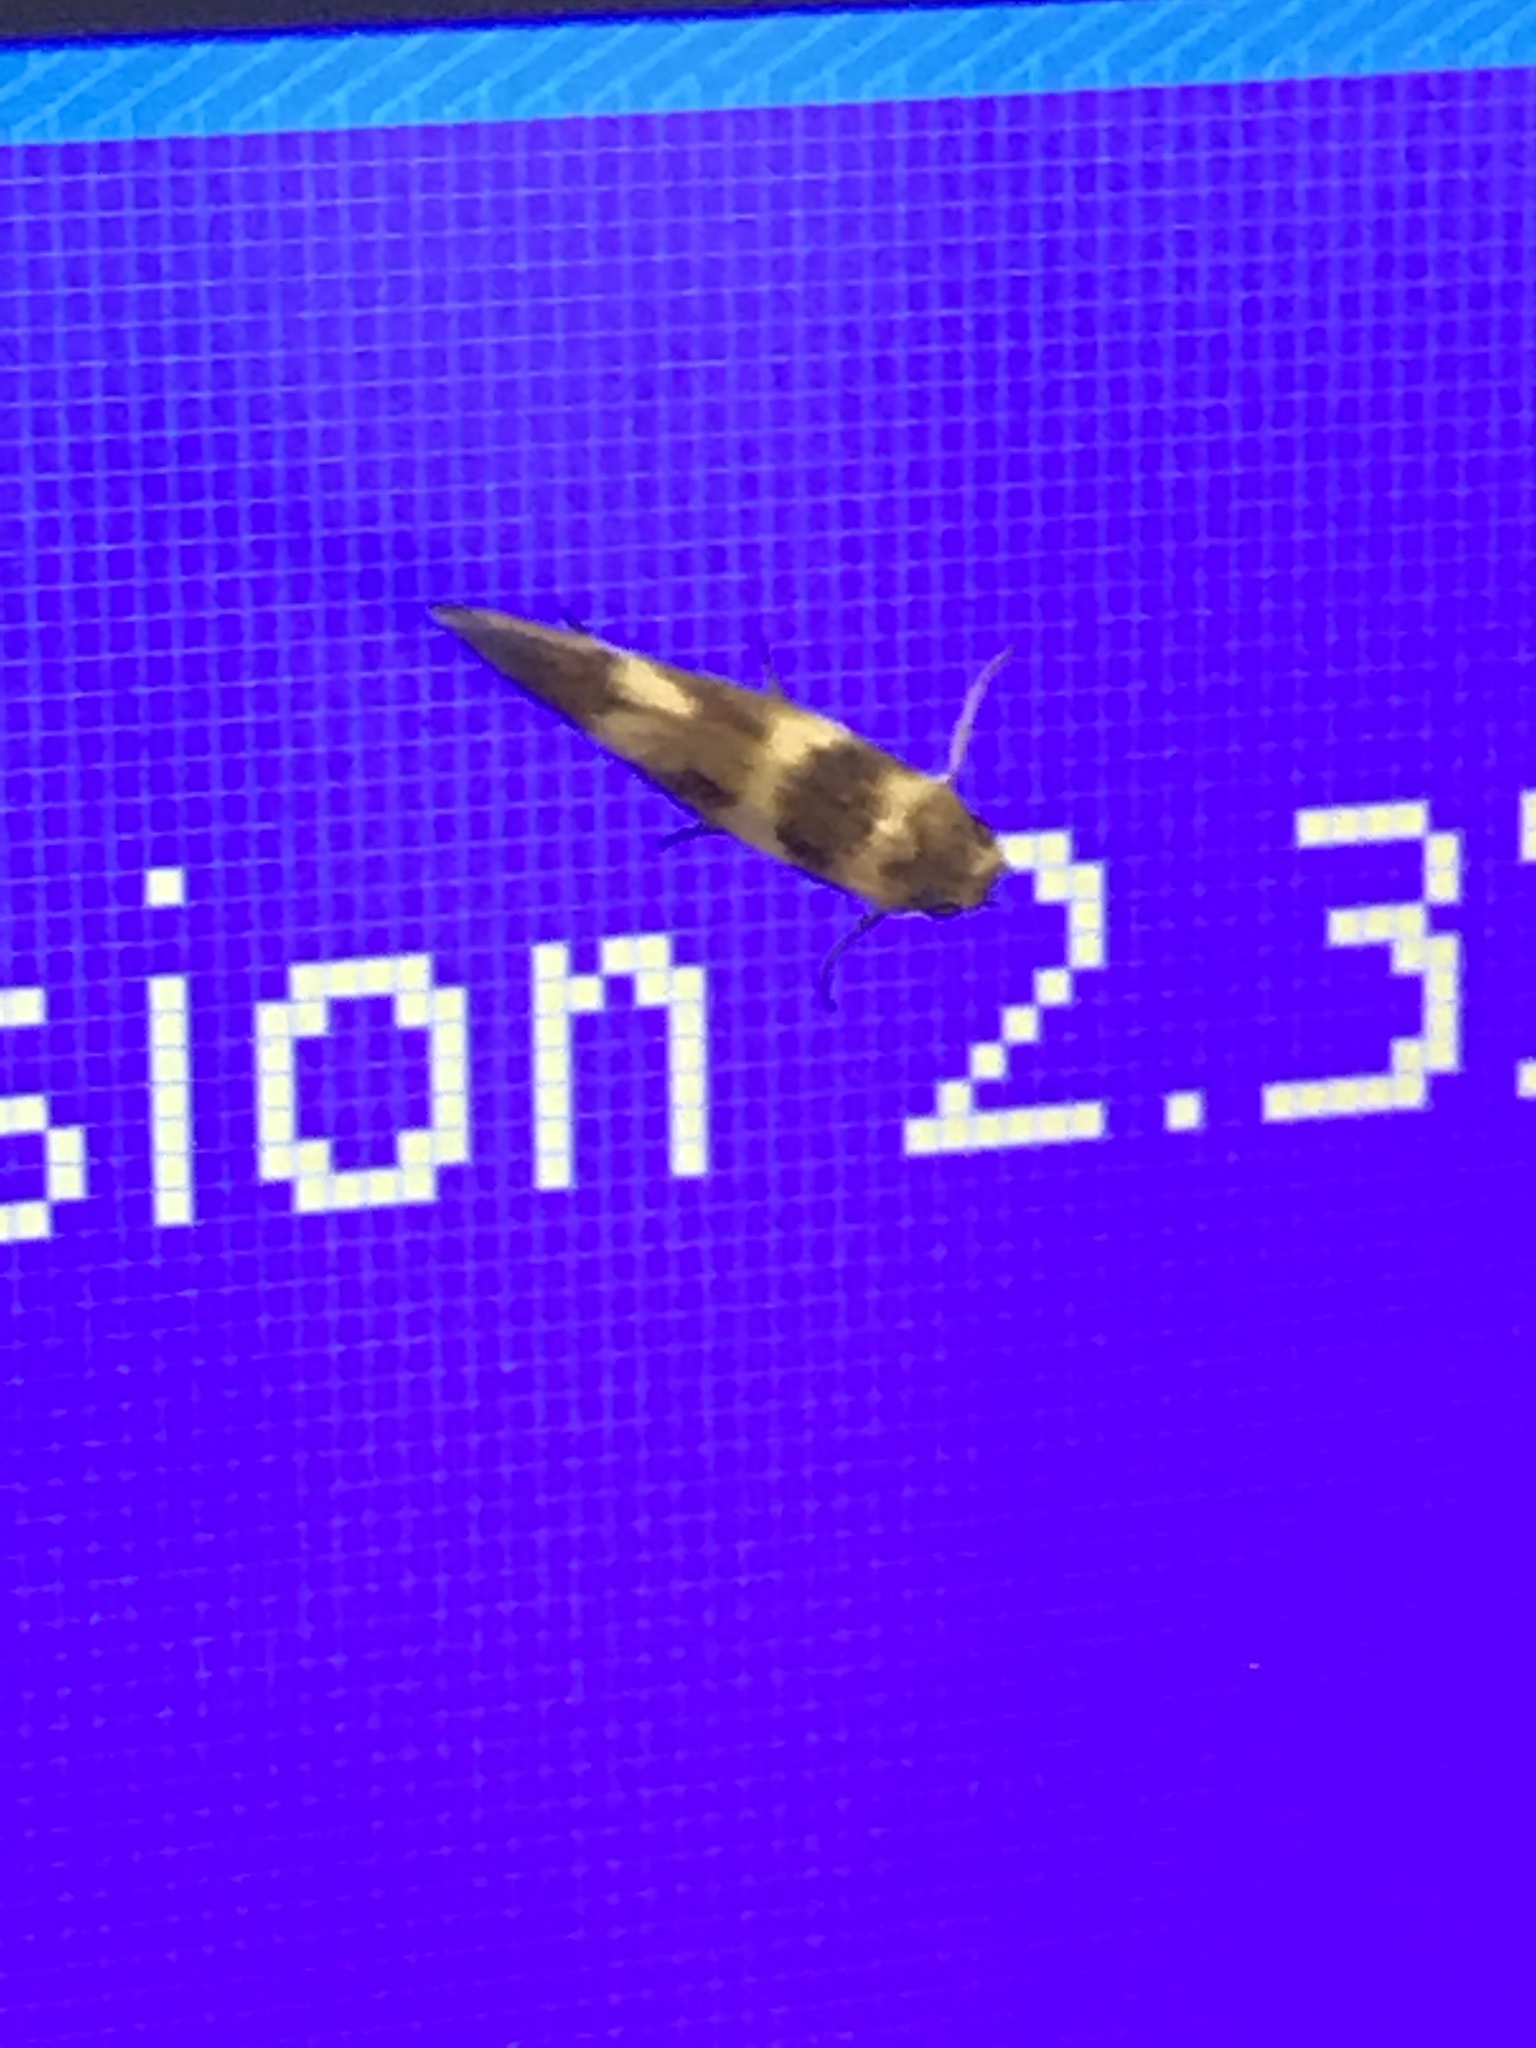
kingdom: Animalia
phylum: Arthropoda
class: Insecta
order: Lepidoptera
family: Scythrididae
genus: Scythris
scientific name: Scythris trivinctella
